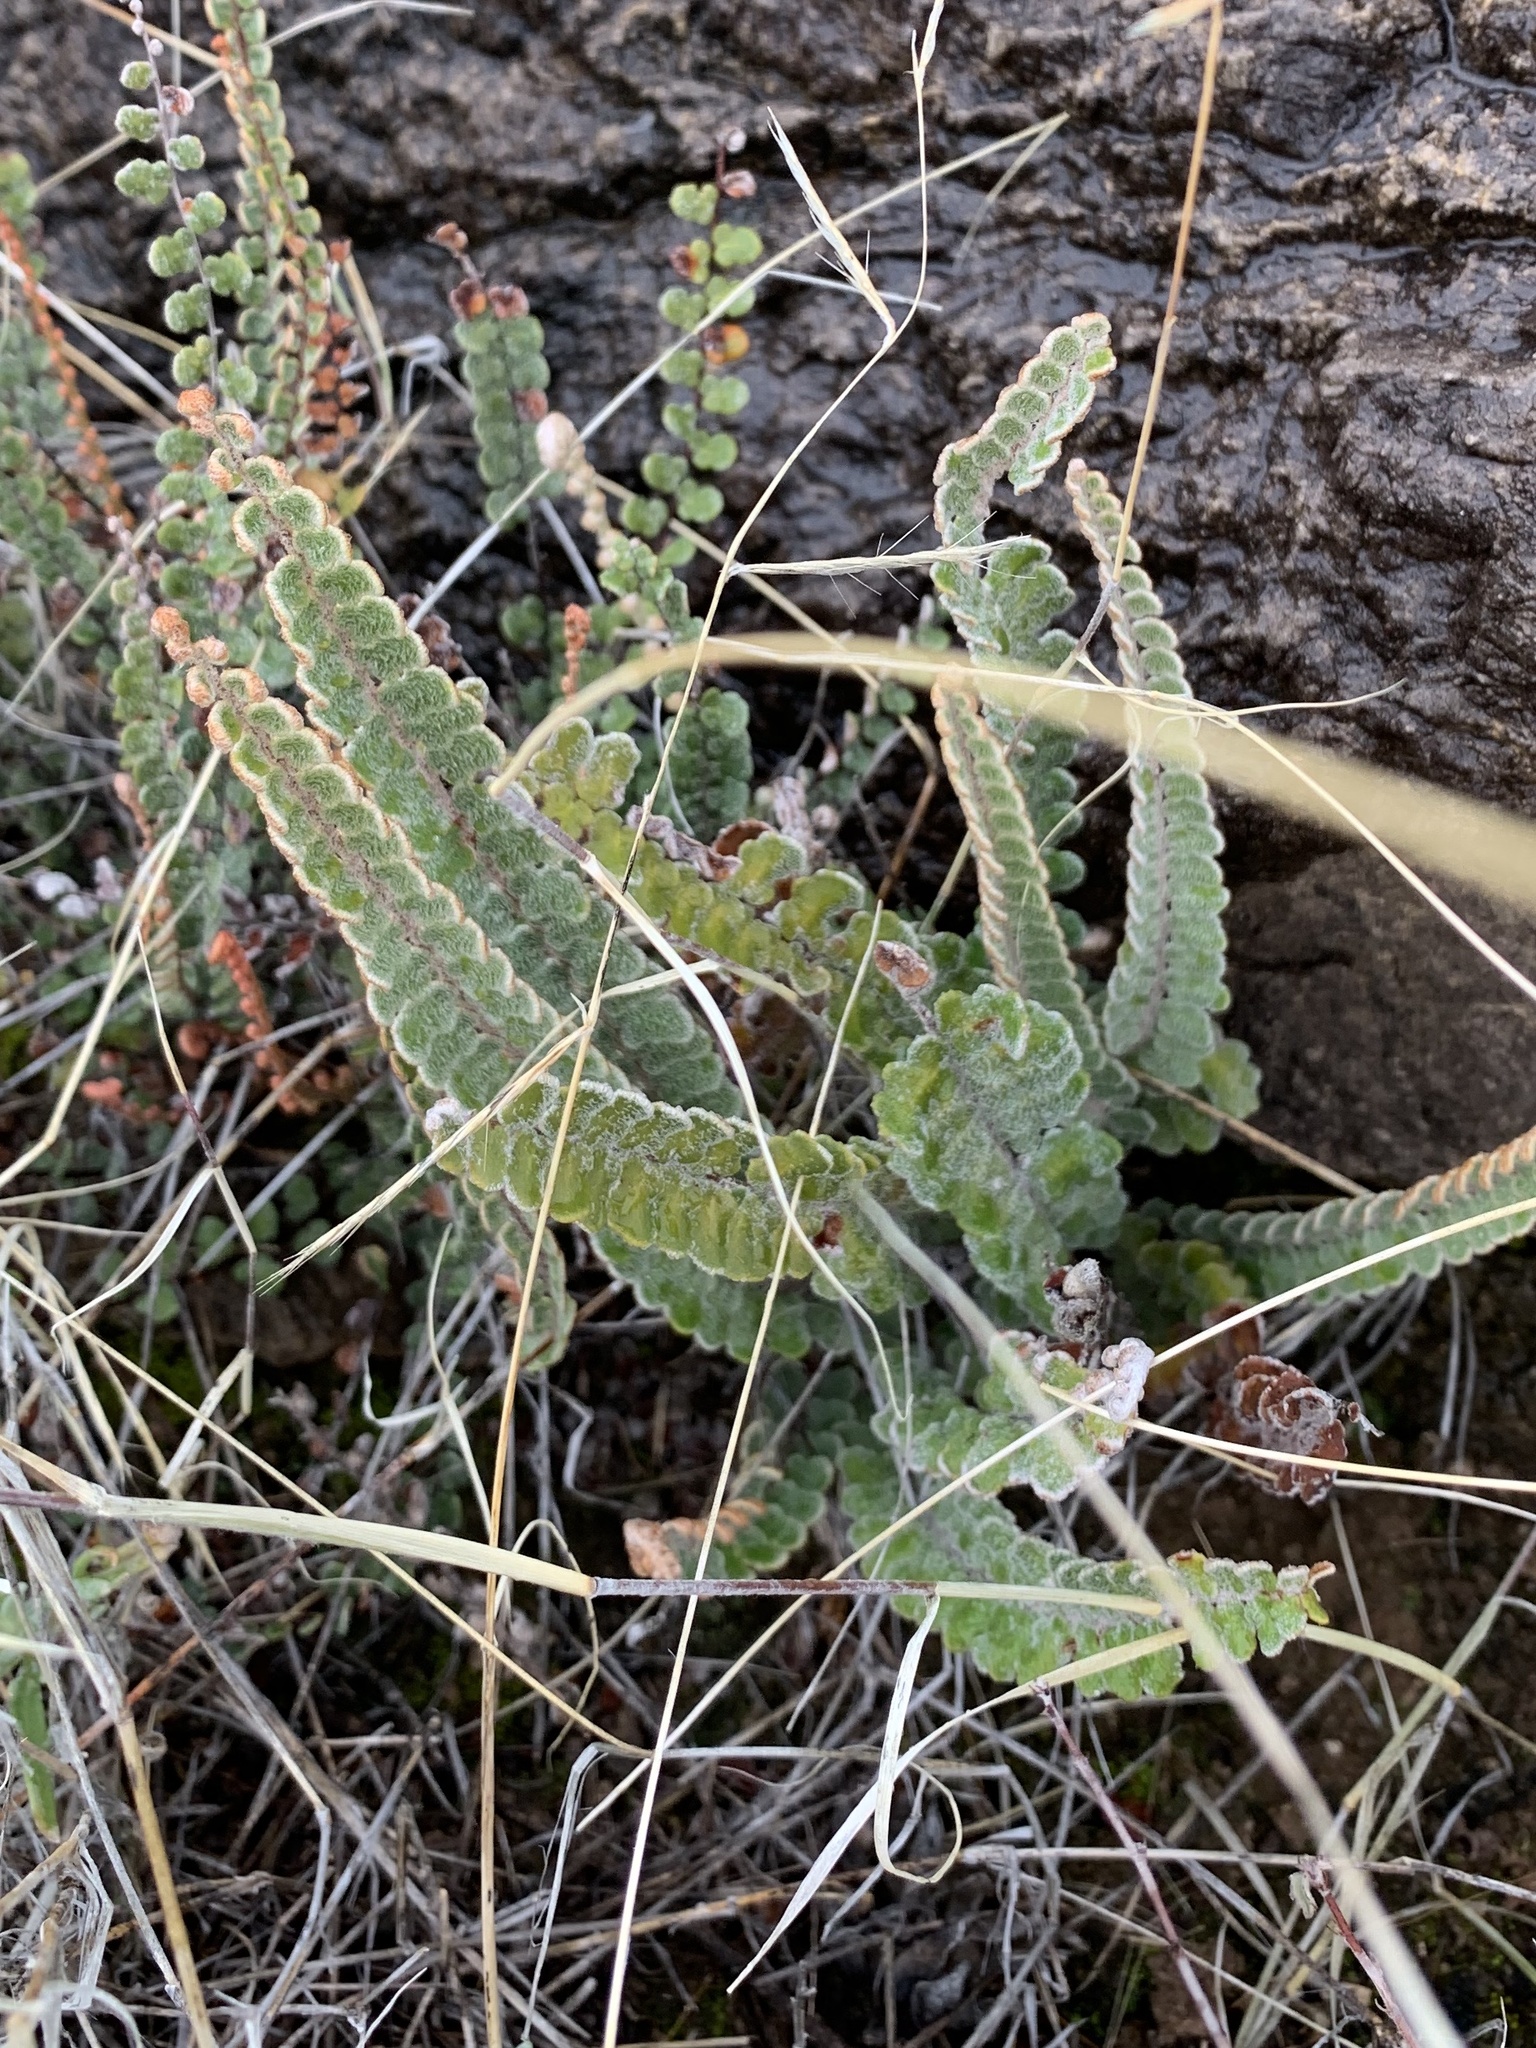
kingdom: Plantae
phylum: Tracheophyta
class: Polypodiopsida
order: Polypodiales
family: Pteridaceae
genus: Astrolepis
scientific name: Astrolepis integerrima
